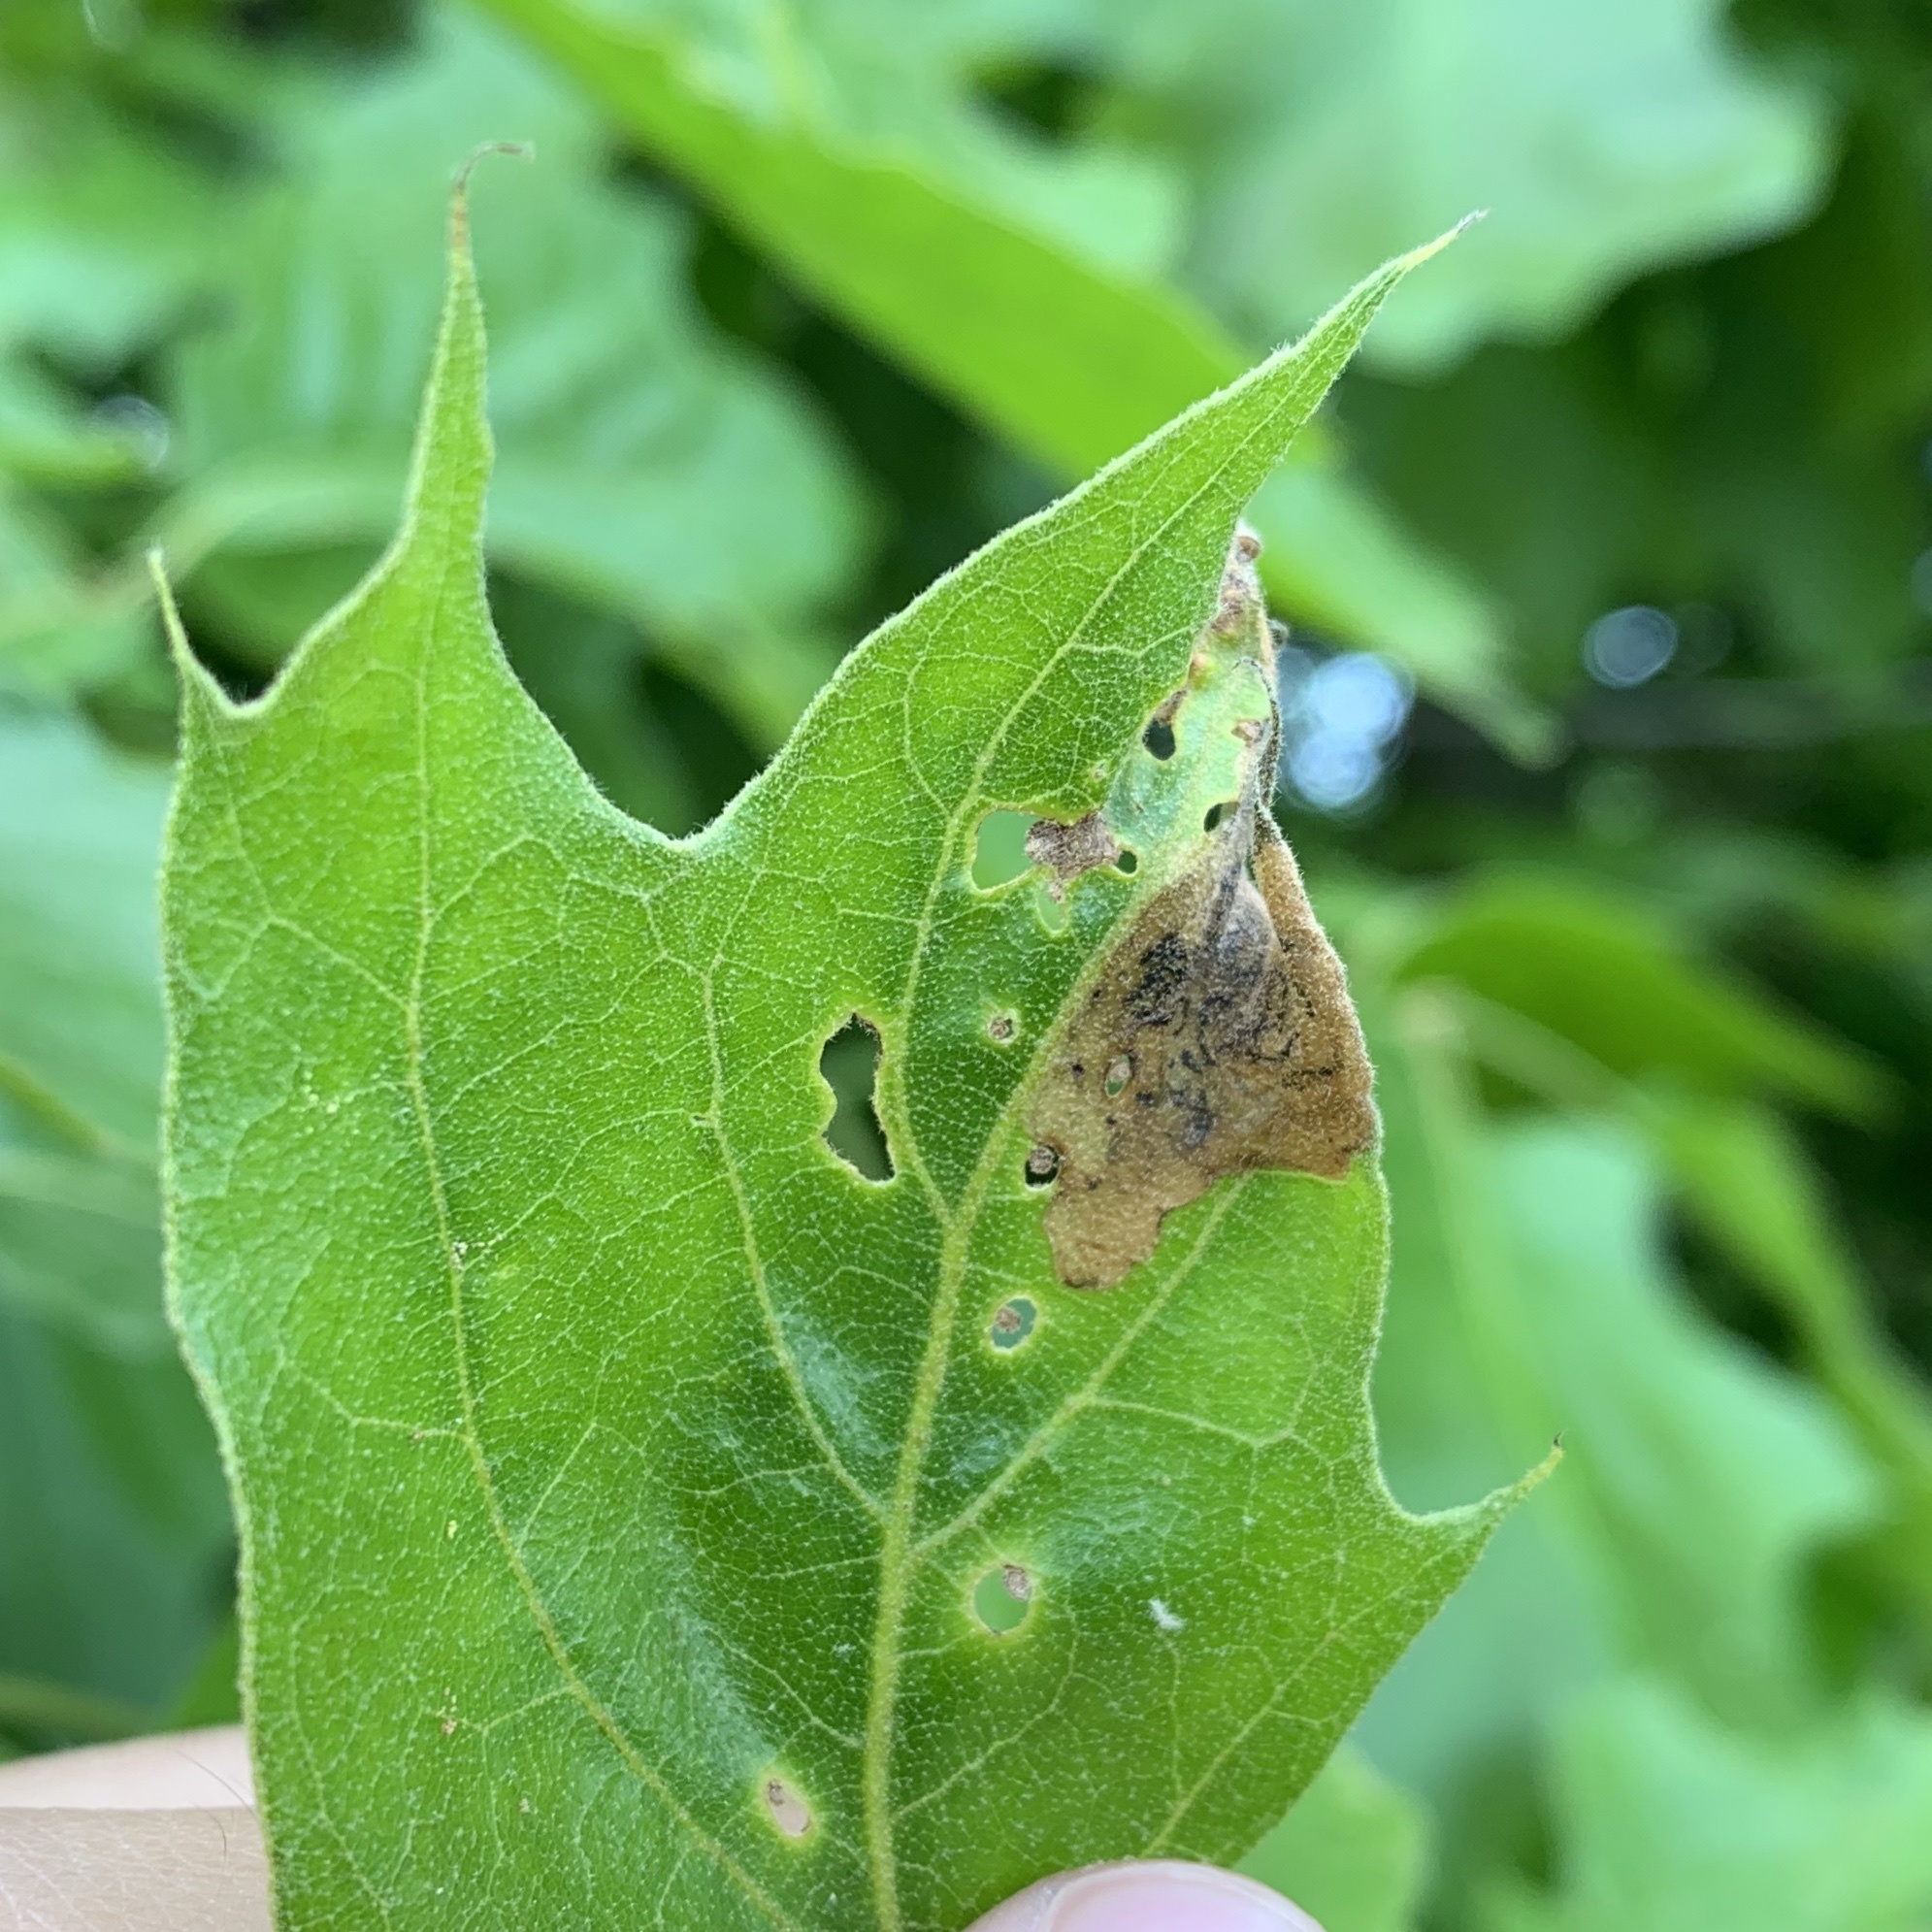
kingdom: Animalia
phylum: Arthropoda
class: Insecta
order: Diptera
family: Agromyzidae
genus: Japanagromyza
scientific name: Japanagromyza viridula
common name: Oak shothole leafminer
